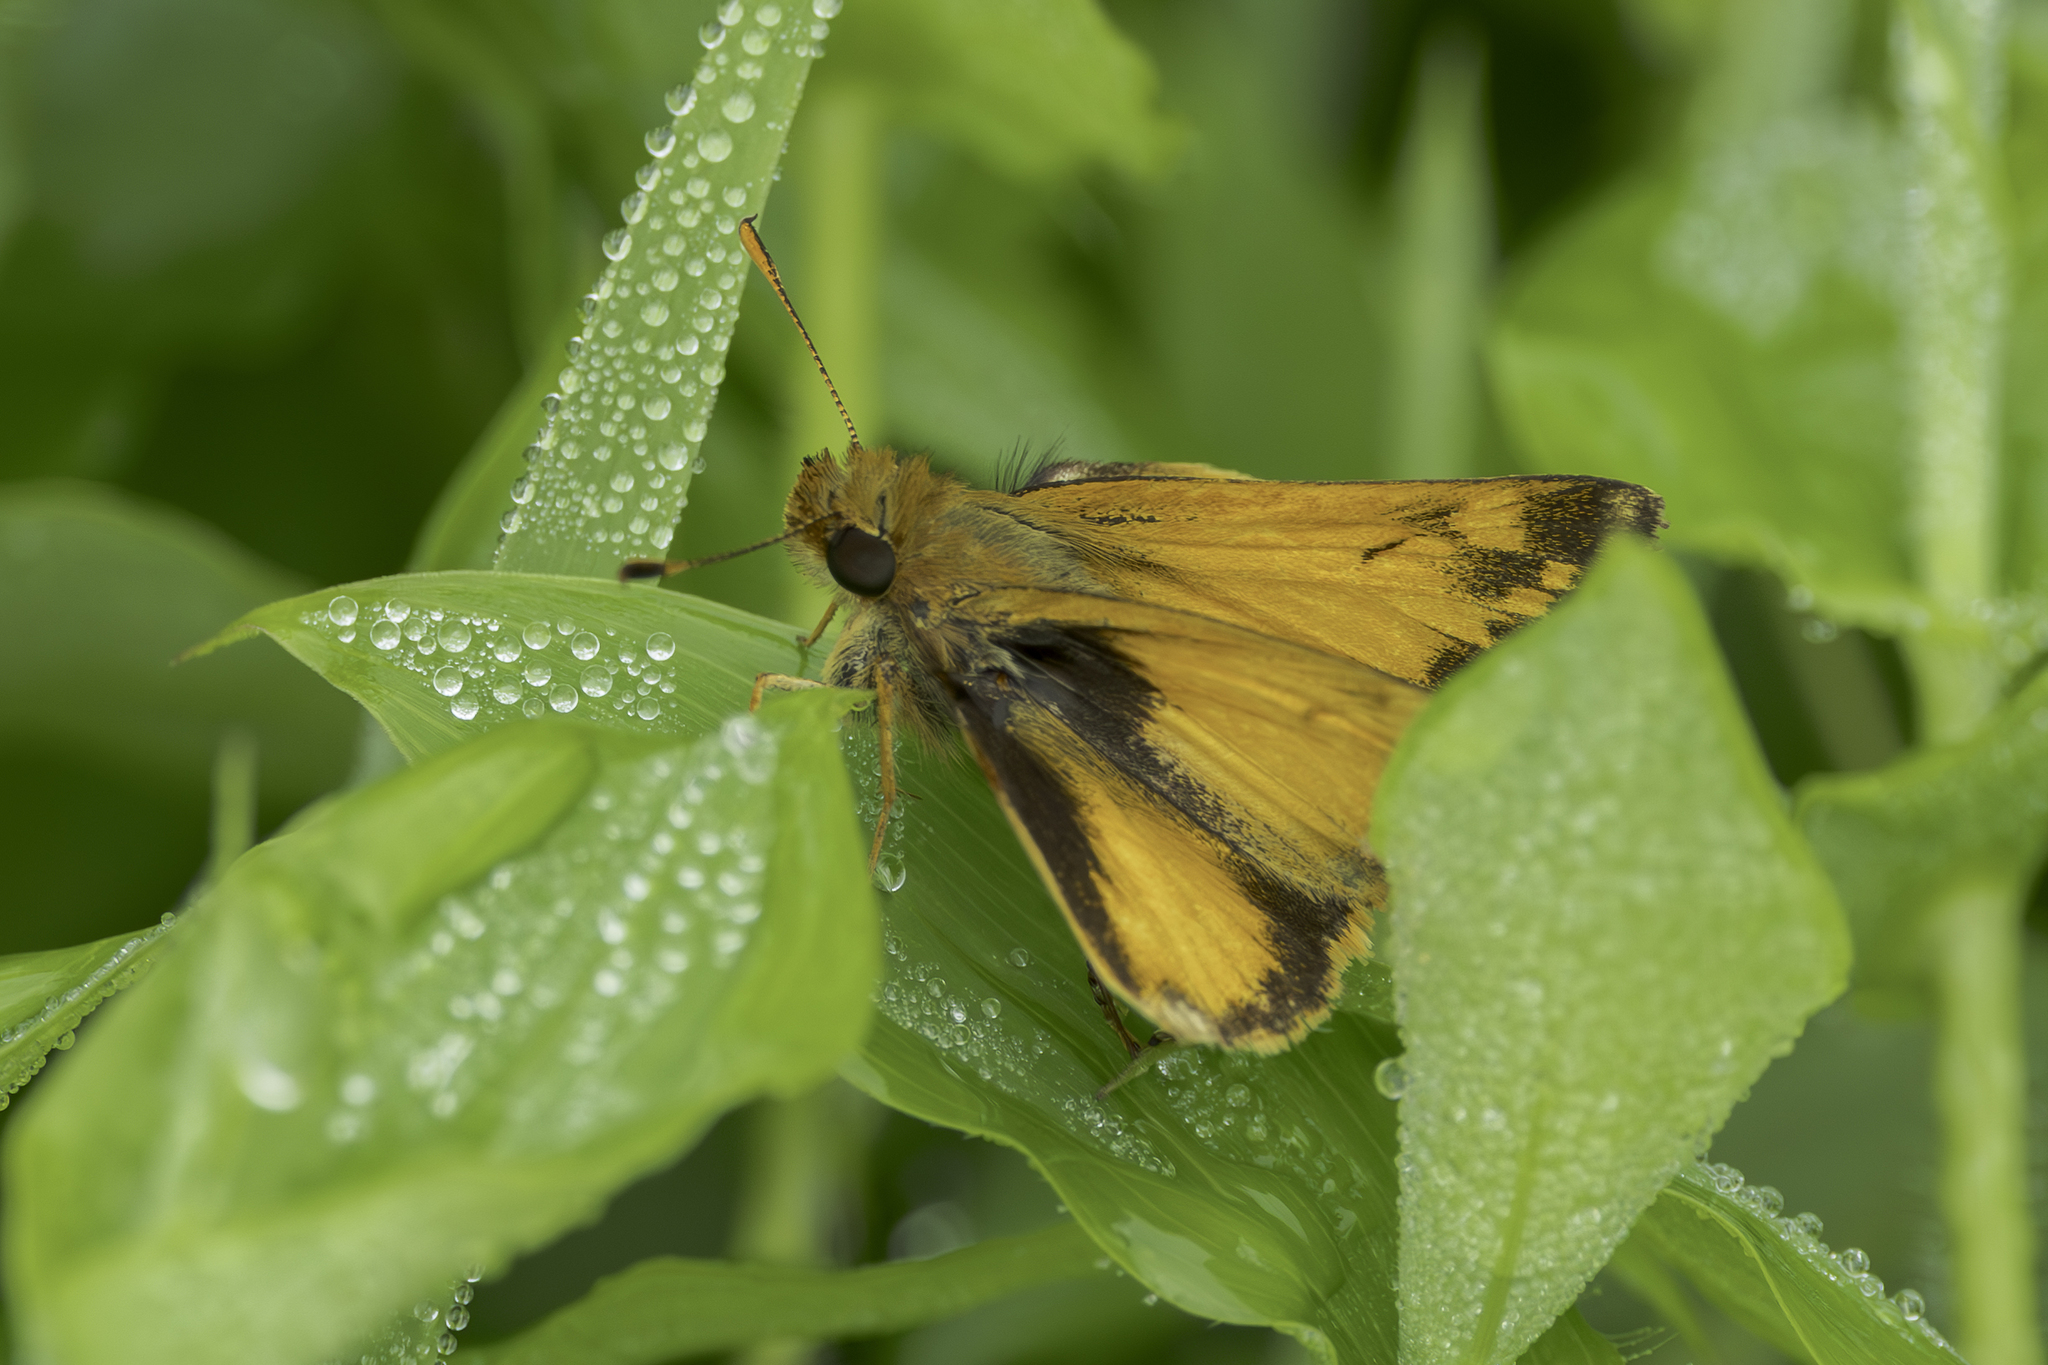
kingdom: Animalia
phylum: Arthropoda
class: Insecta
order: Lepidoptera
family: Hesperiidae
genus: Lon
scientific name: Lon zabulon
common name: Zabulon skipper
